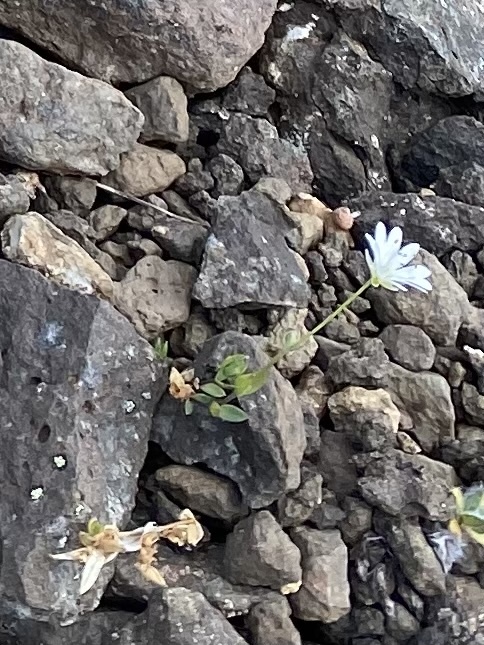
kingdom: Plantae
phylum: Tracheophyta
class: Magnoliopsida
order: Caryophyllales
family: Caryophyllaceae
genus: Stellaria
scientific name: Stellaria longipes
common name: Goldie's starwort
